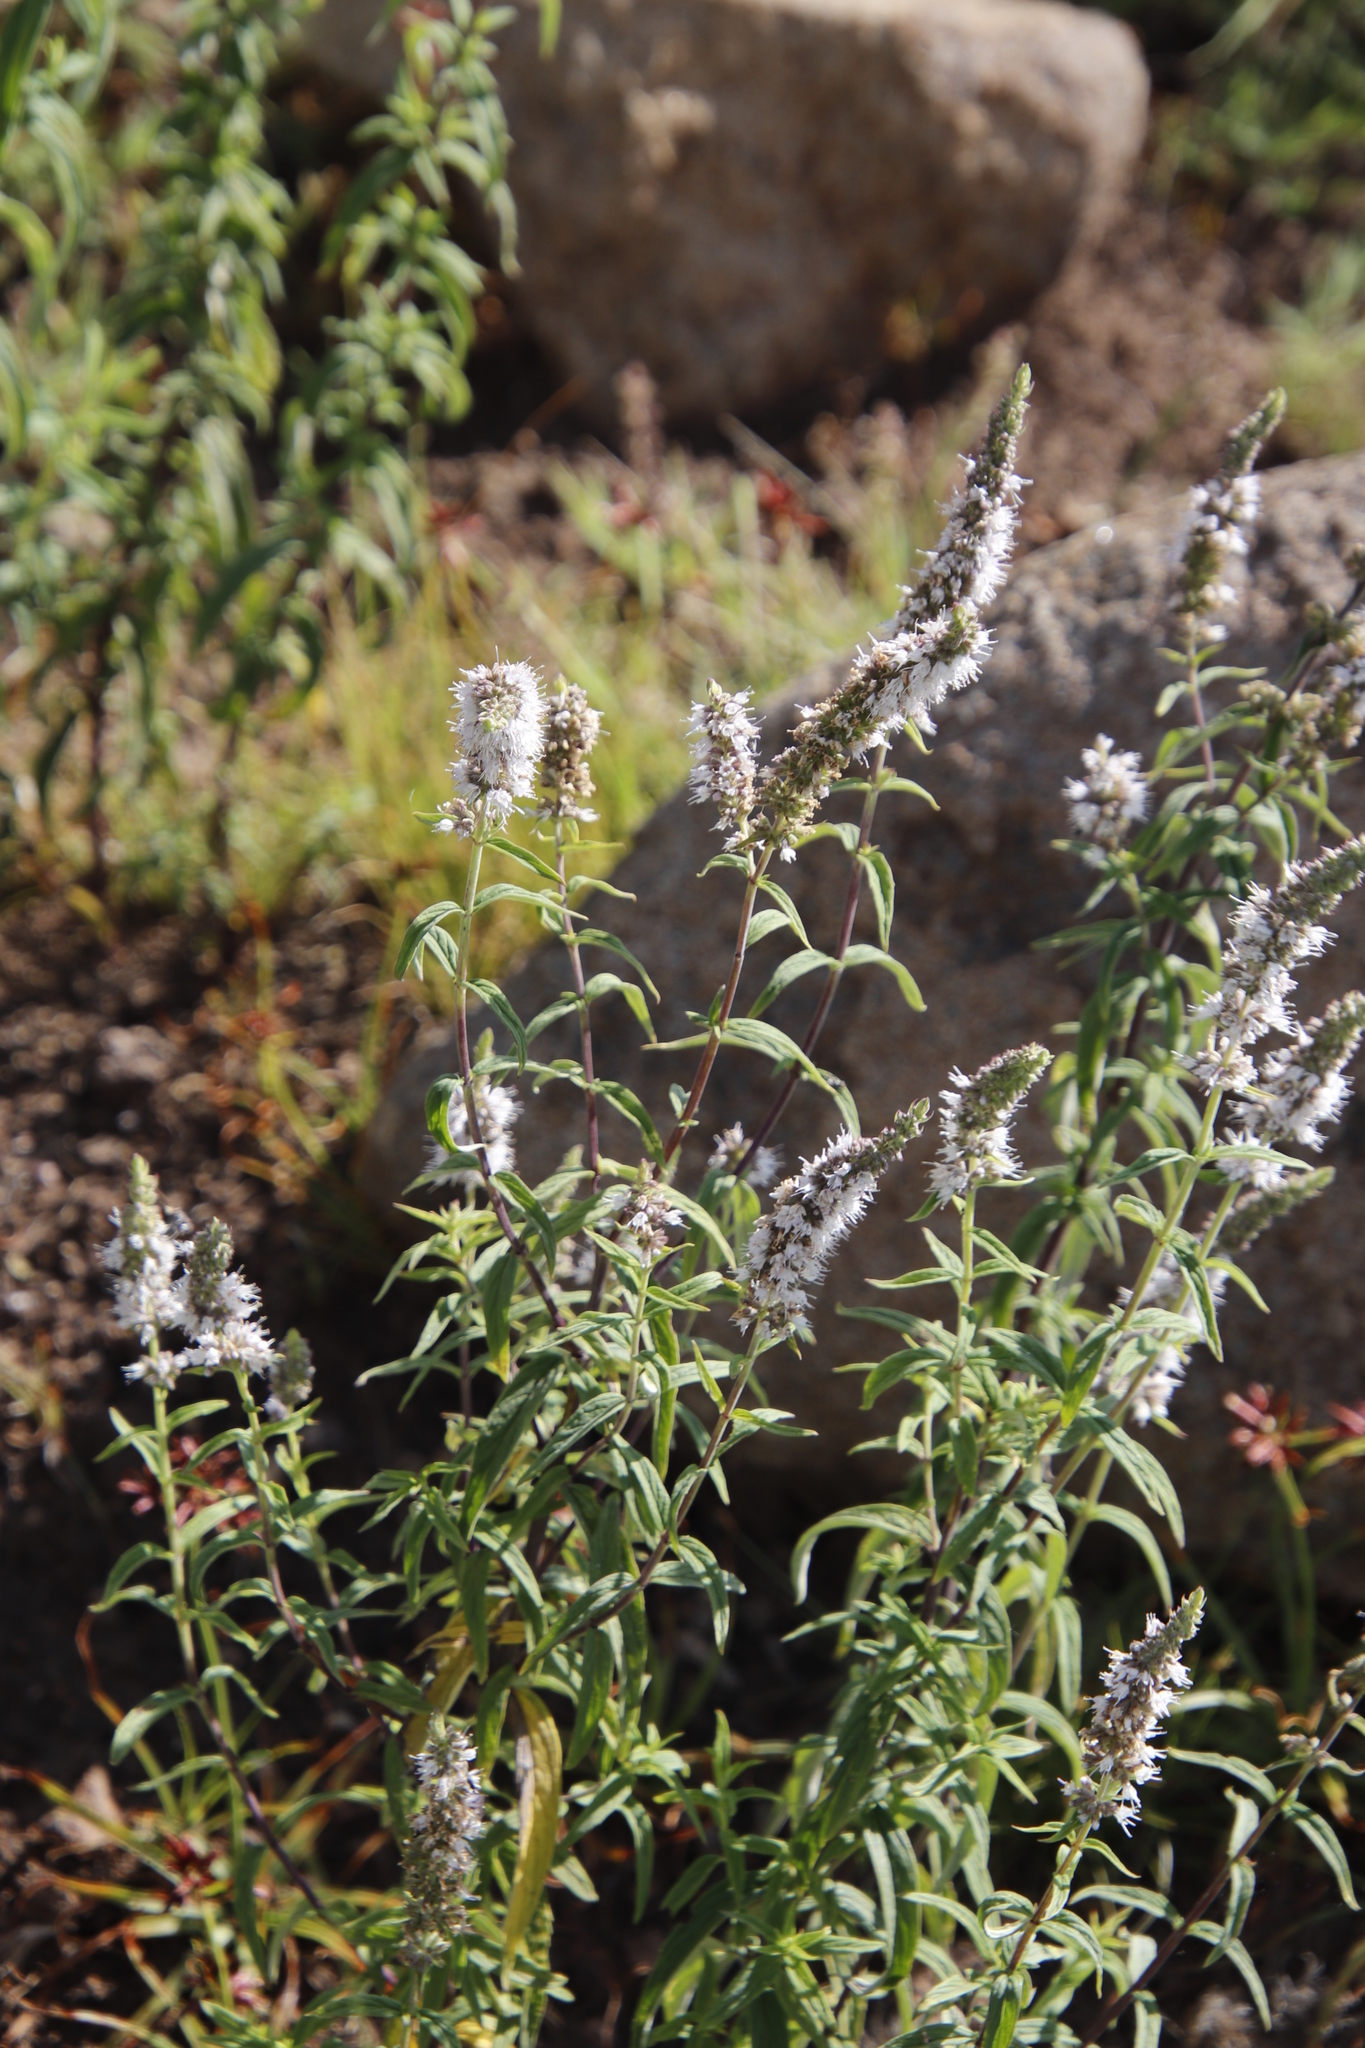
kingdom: Plantae
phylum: Tracheophyta
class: Magnoliopsida
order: Lamiales
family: Lamiaceae
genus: Mentha
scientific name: Mentha longifolia
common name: Horse mint
